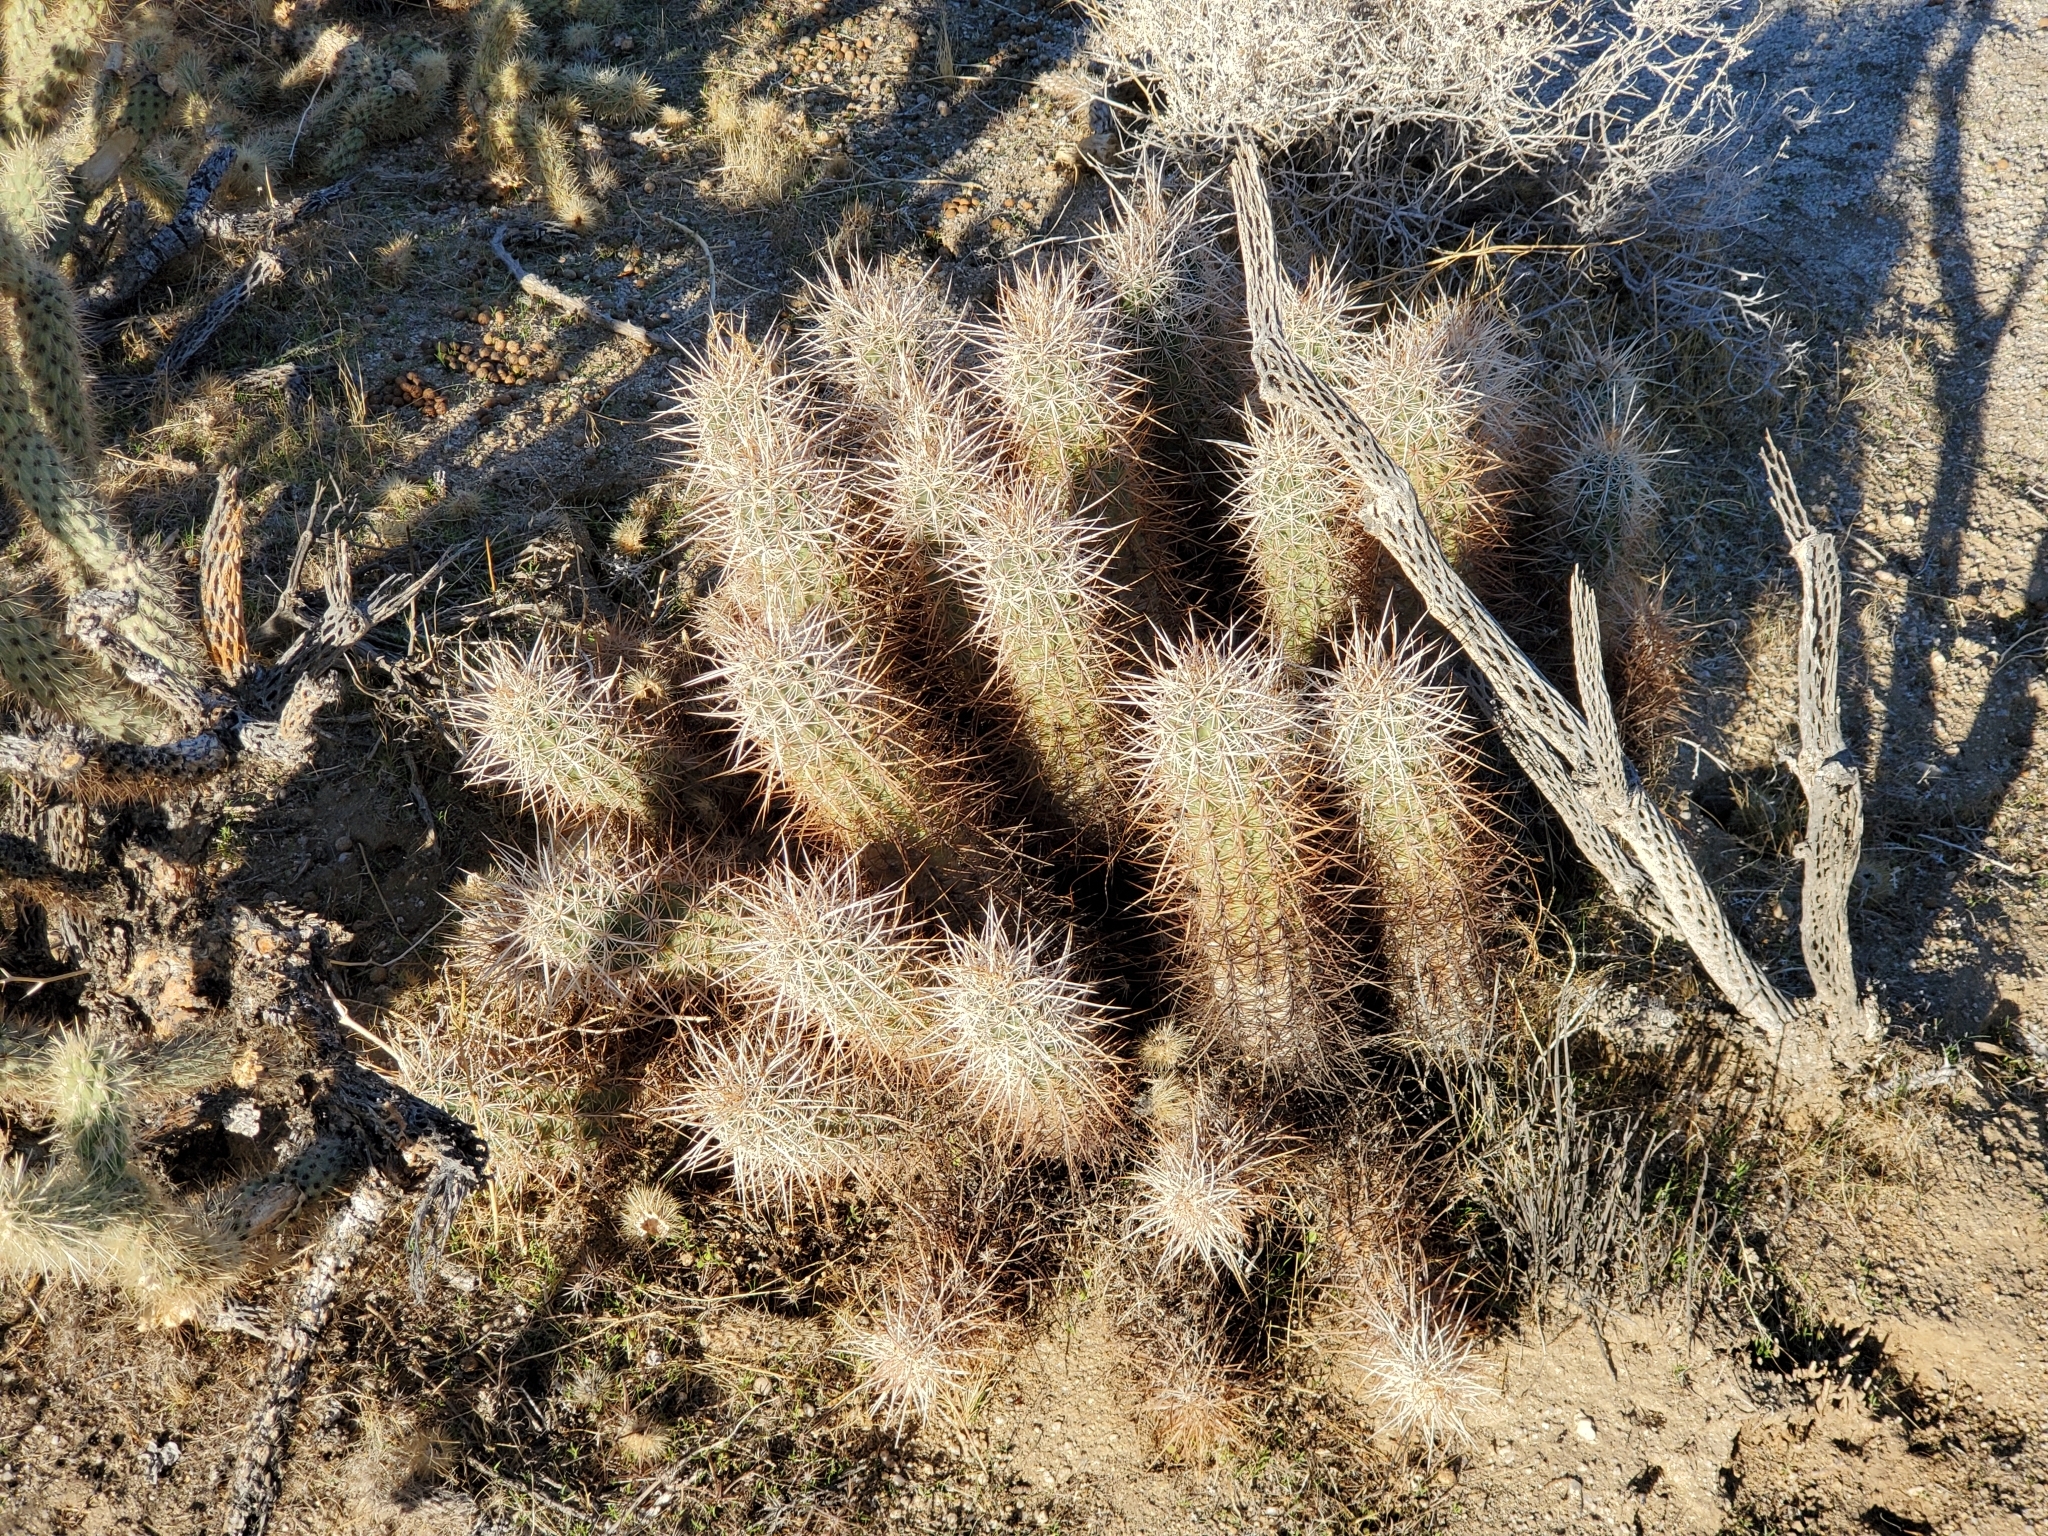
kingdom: Plantae
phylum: Tracheophyta
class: Magnoliopsida
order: Caryophyllales
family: Cactaceae
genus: Echinocereus
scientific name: Echinocereus engelmannii
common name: Engelmann's hedgehog cactus
